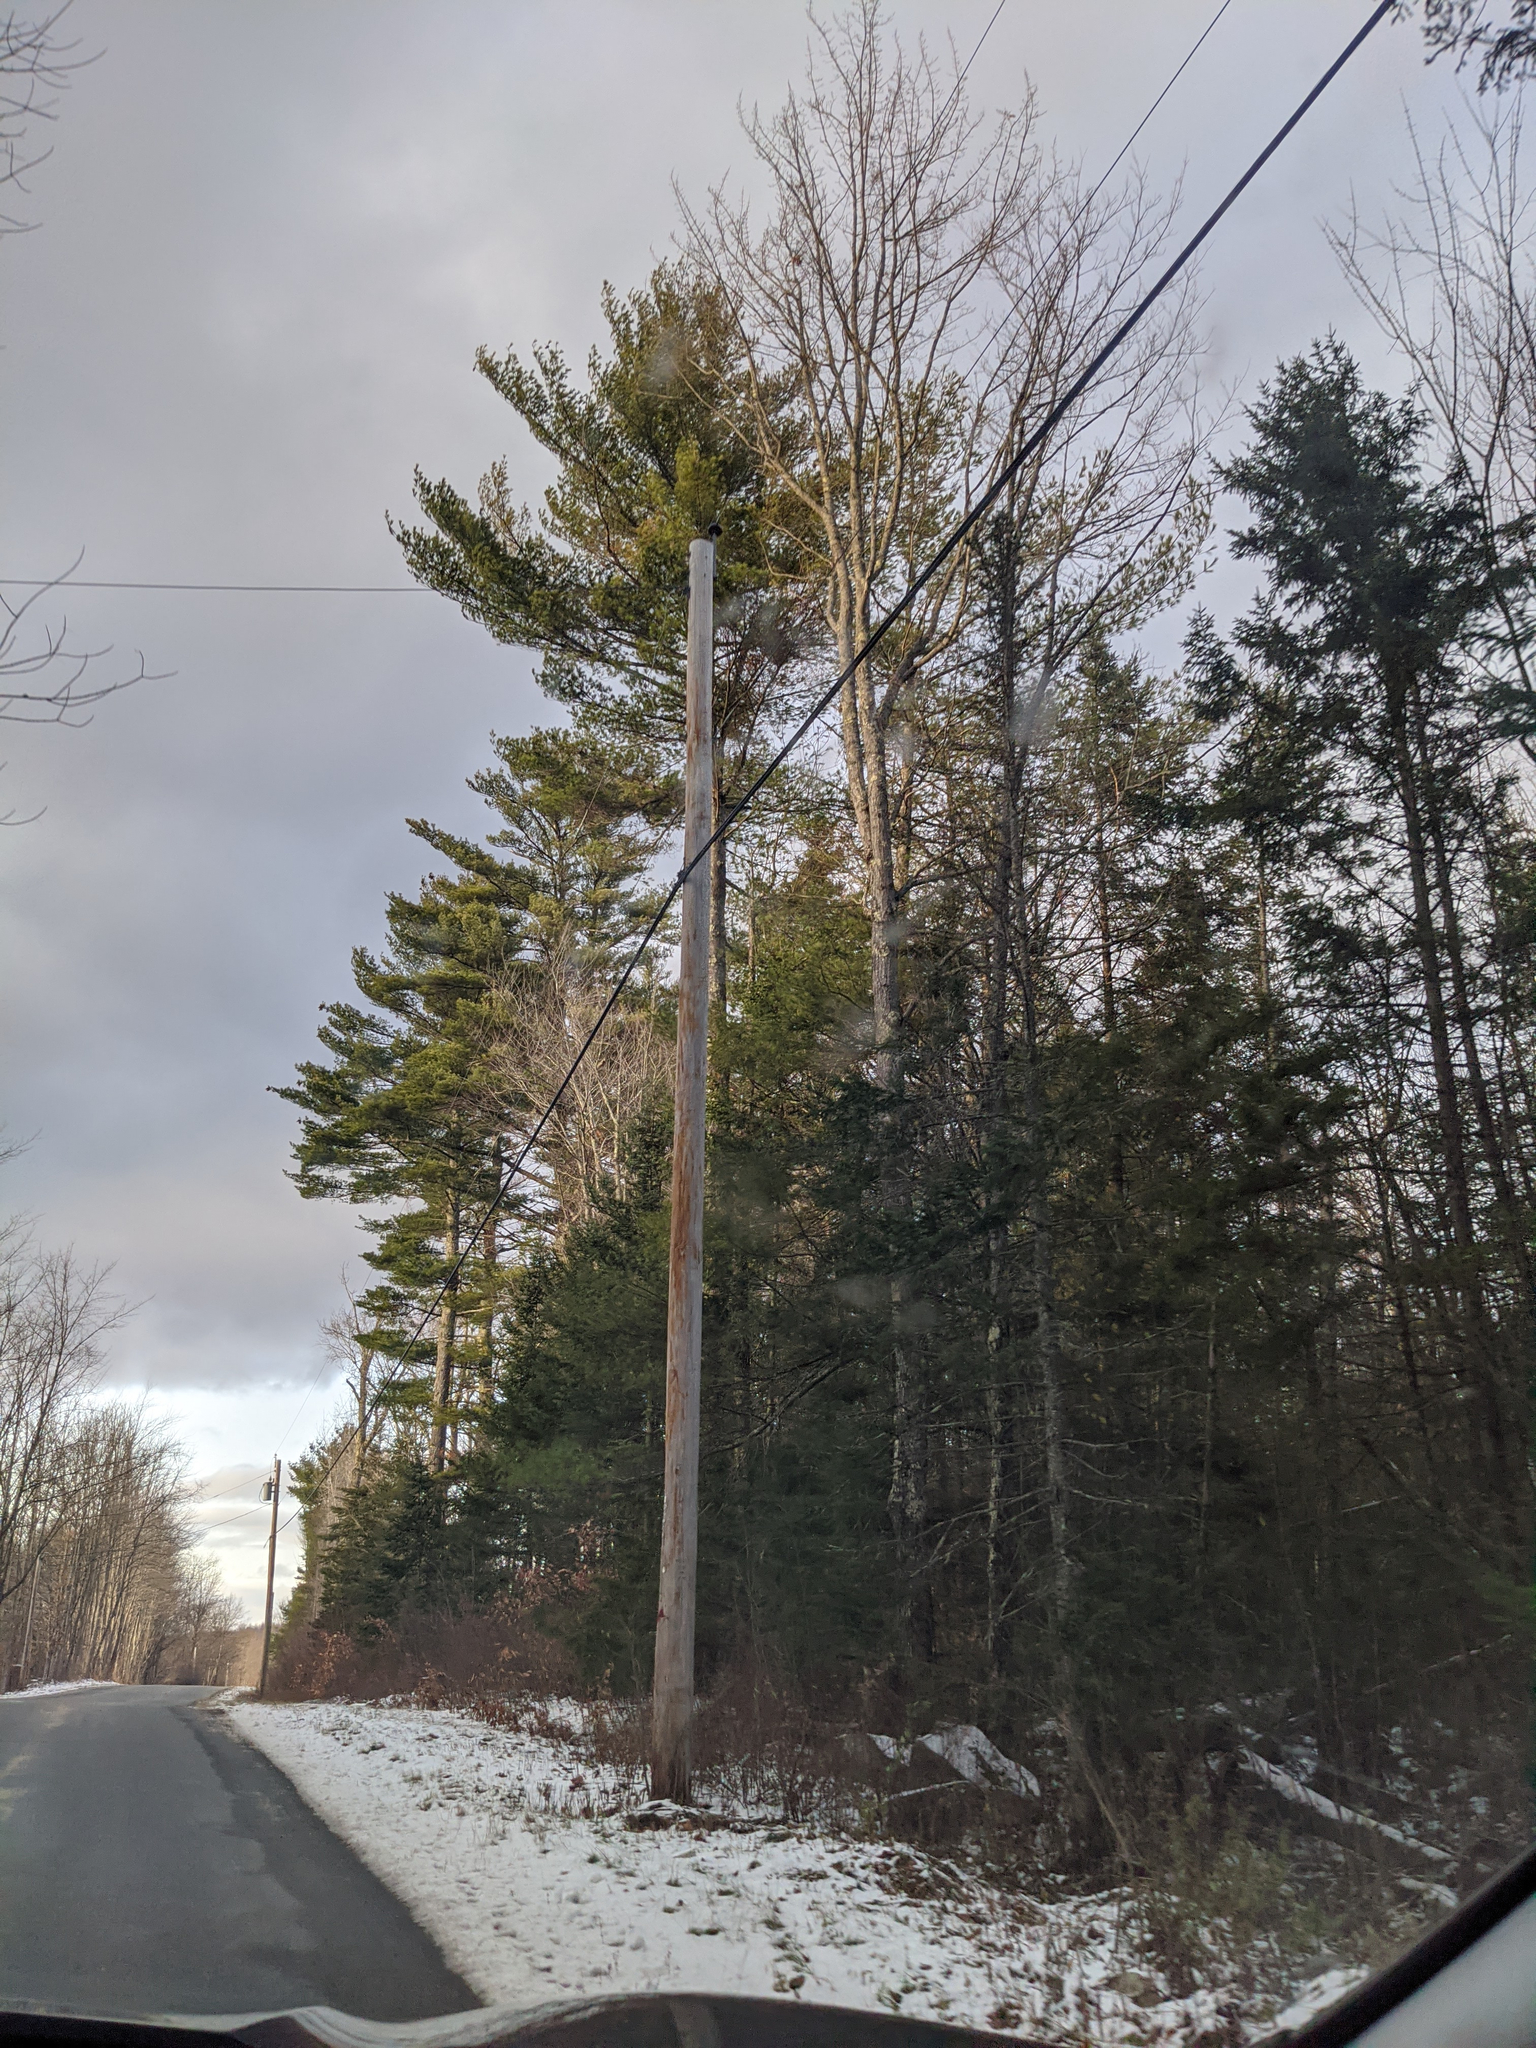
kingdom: Plantae
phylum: Tracheophyta
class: Pinopsida
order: Pinales
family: Pinaceae
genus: Pinus
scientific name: Pinus strobus
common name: Weymouth pine
